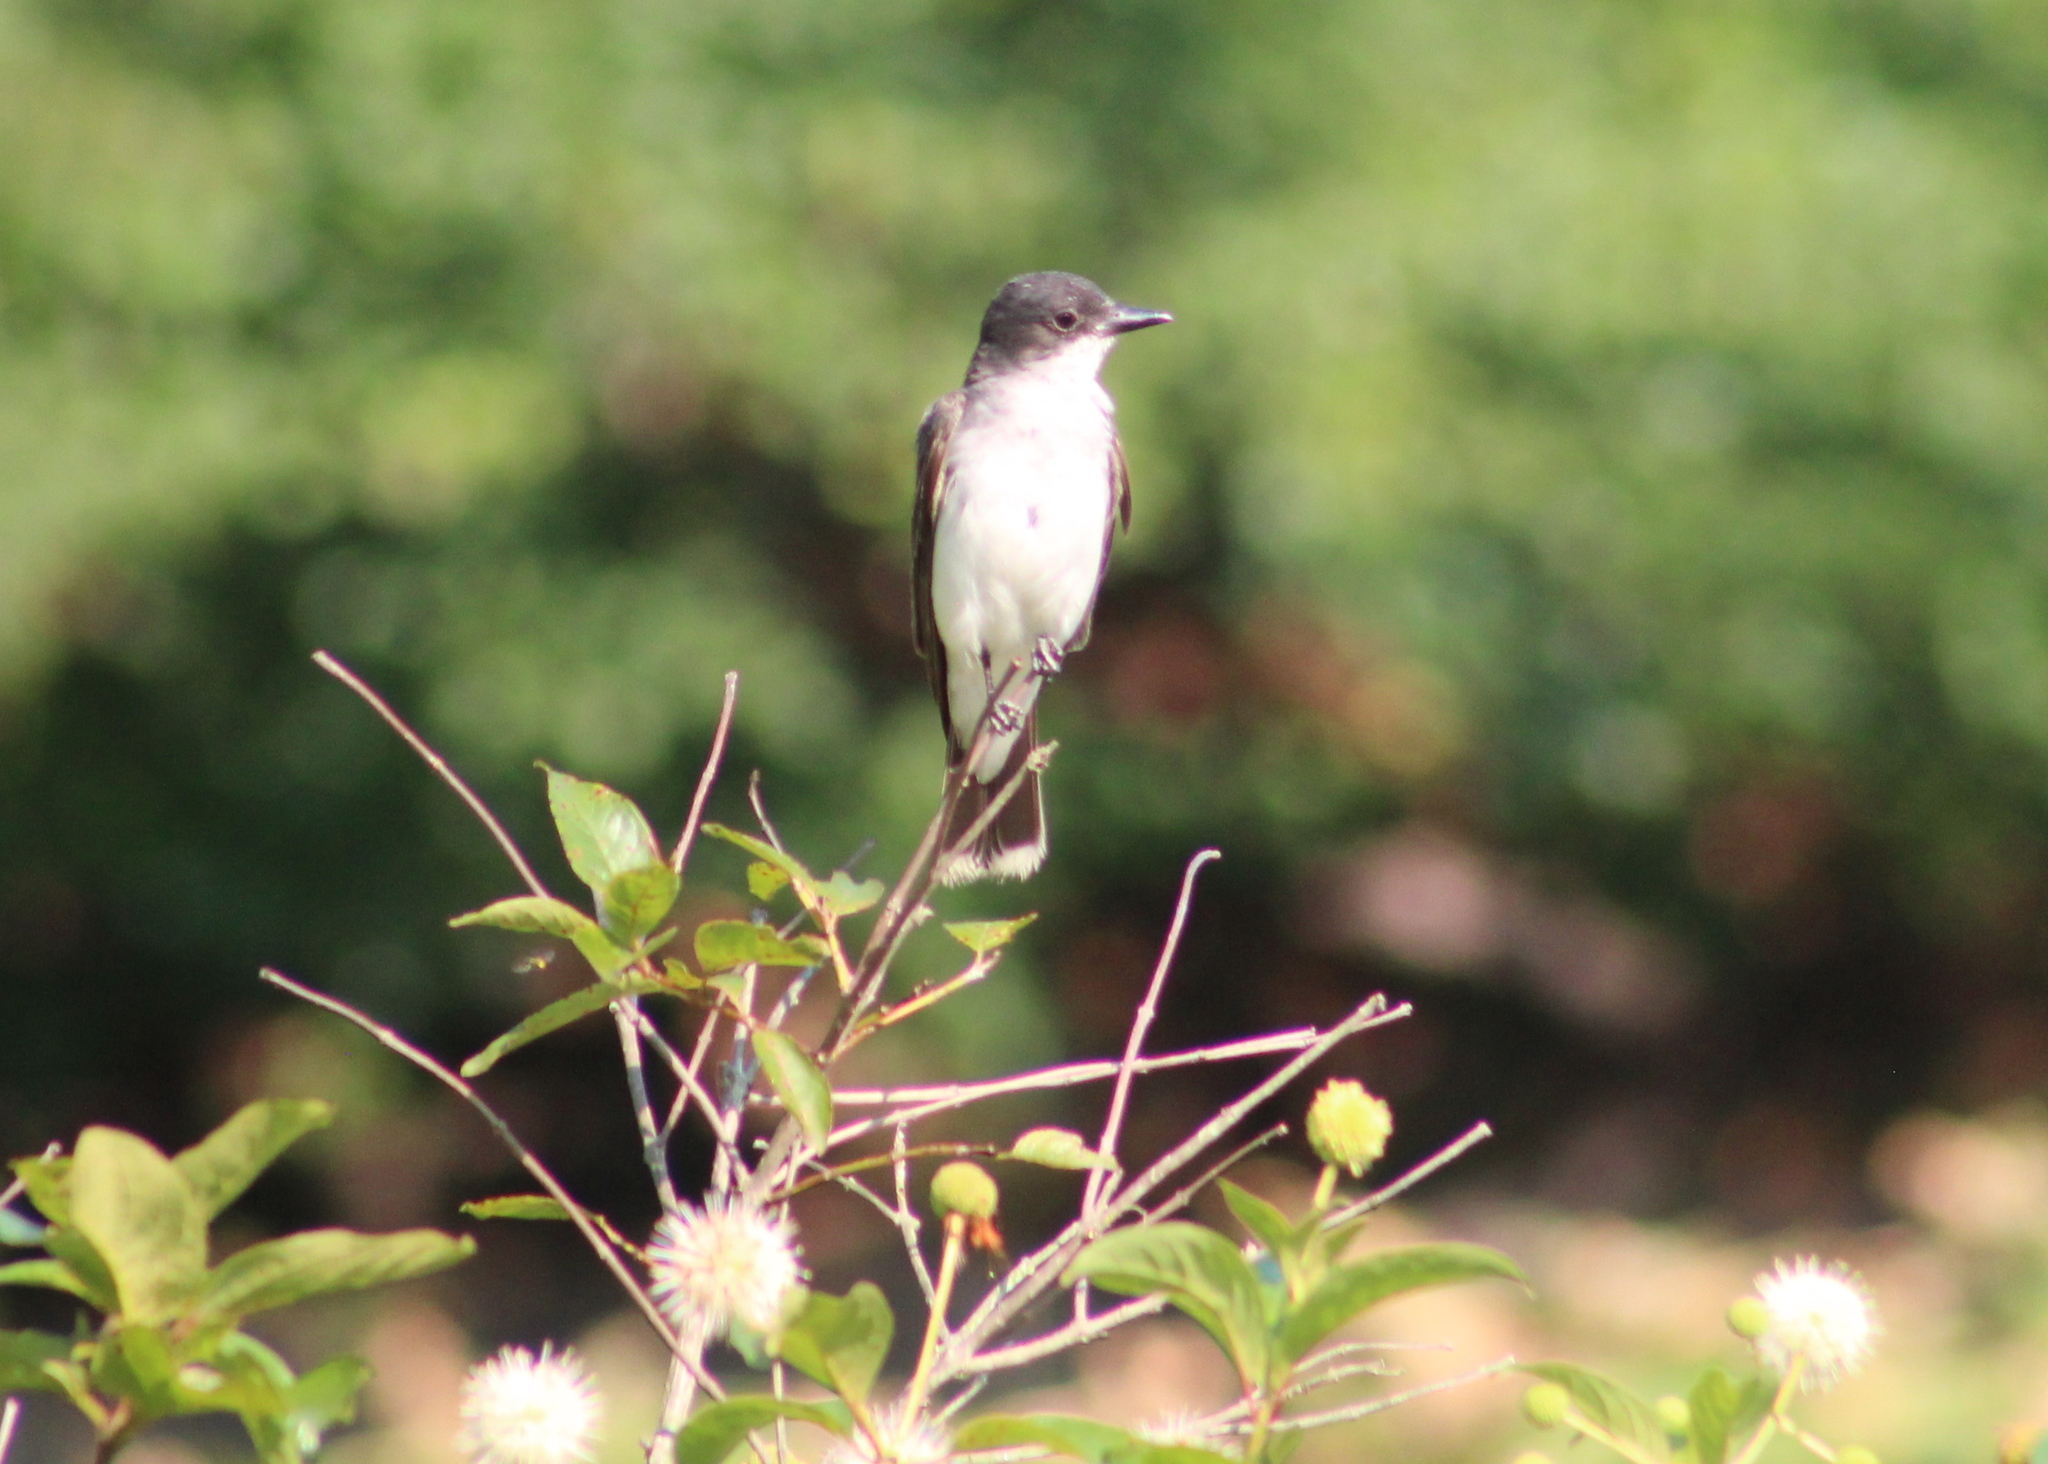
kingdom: Animalia
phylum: Chordata
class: Aves
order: Passeriformes
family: Tyrannidae
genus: Tyrannus
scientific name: Tyrannus tyrannus
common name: Eastern kingbird
